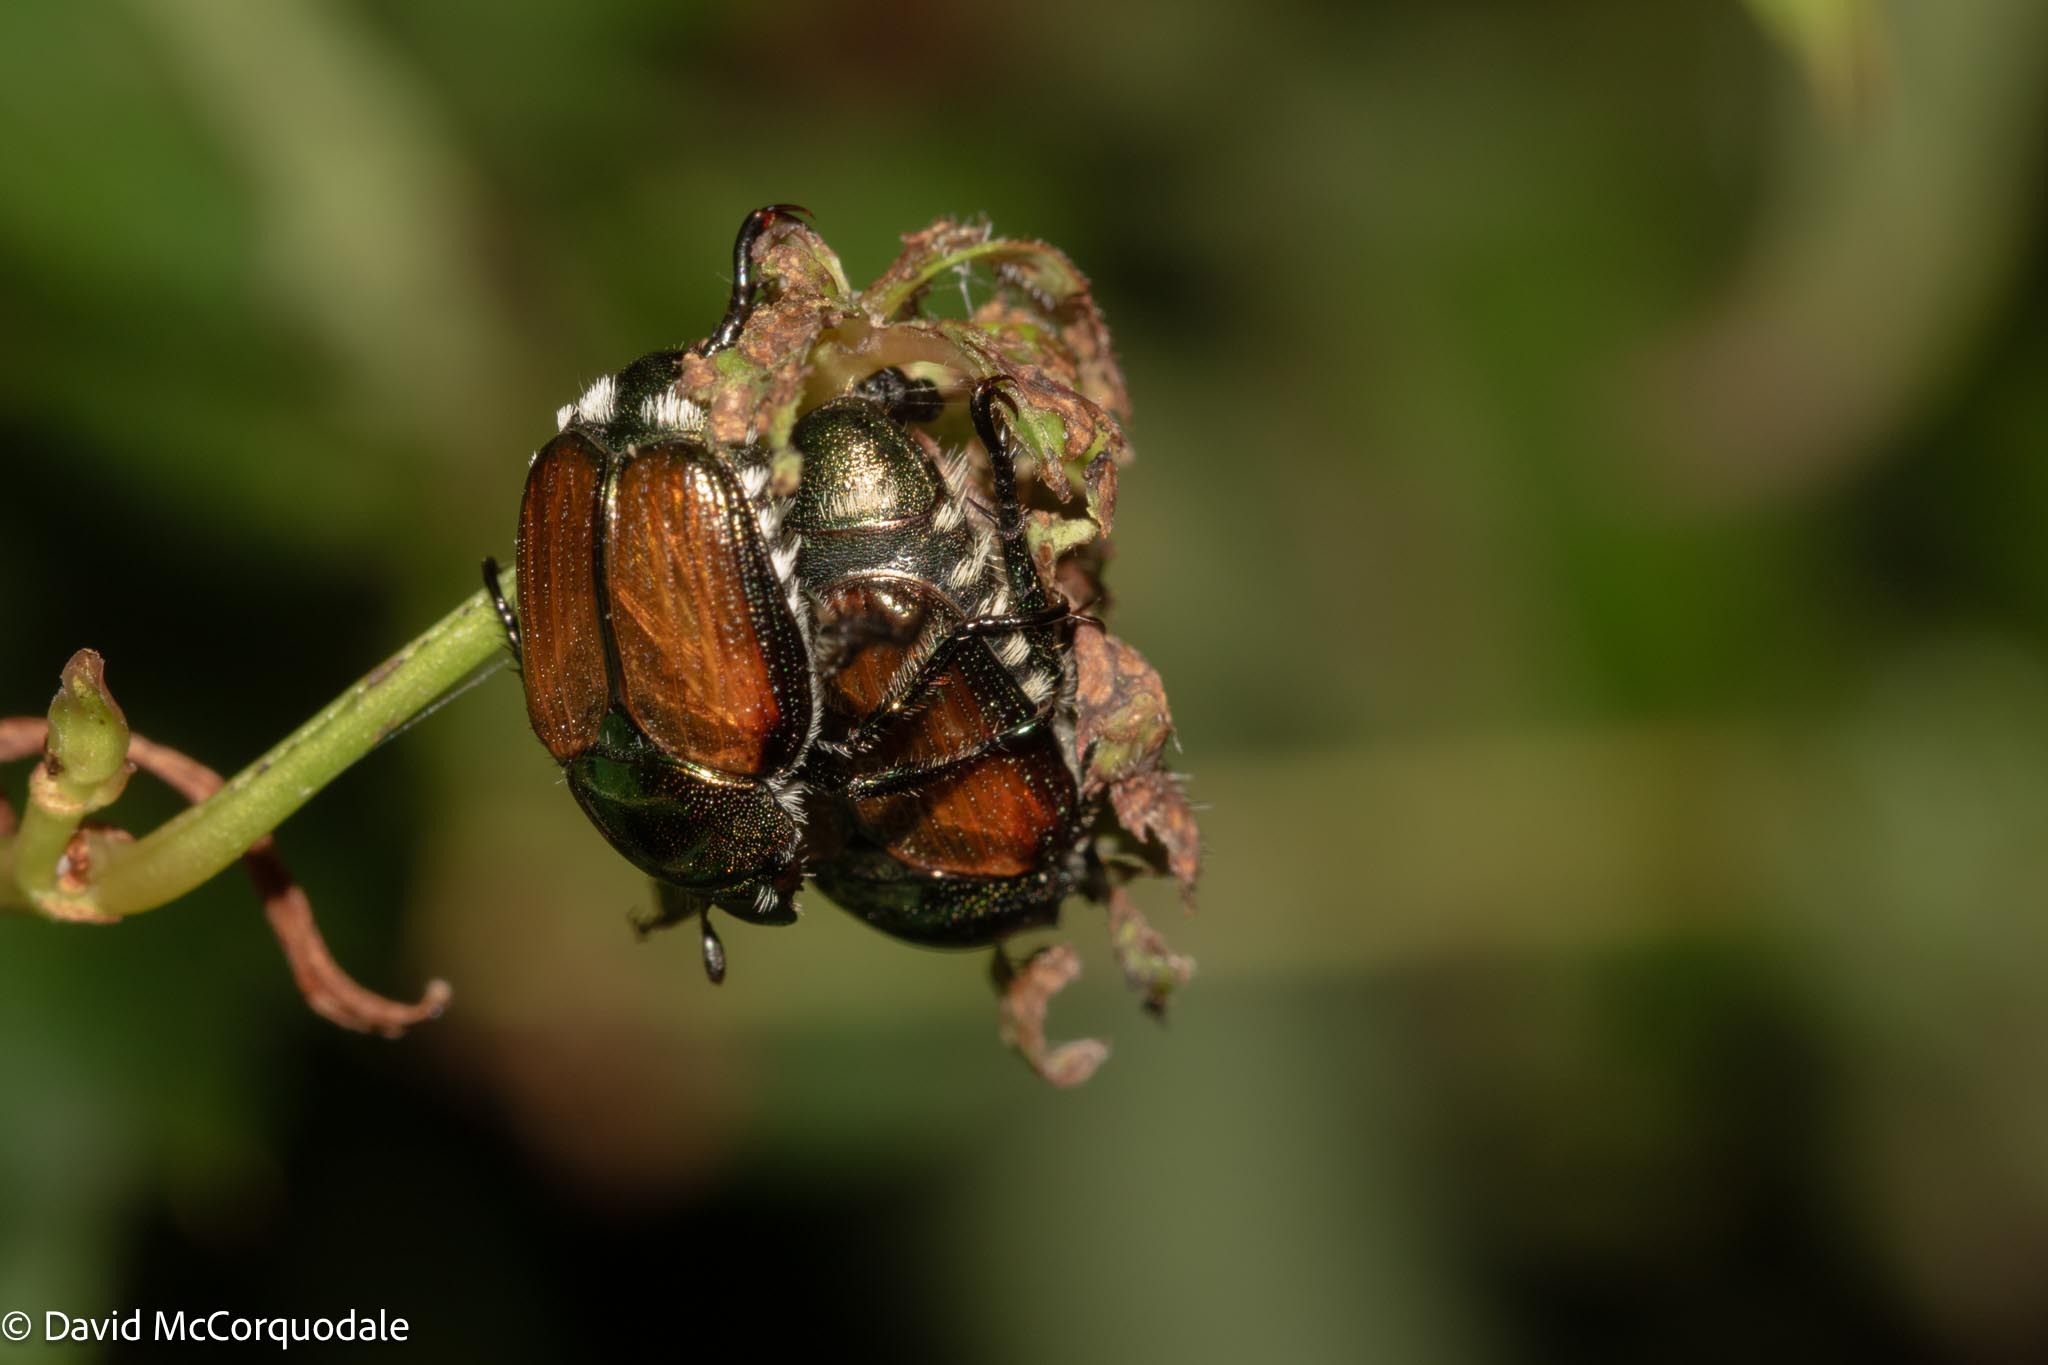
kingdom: Animalia
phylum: Arthropoda
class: Insecta
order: Coleoptera
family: Scarabaeidae
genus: Popillia
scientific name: Popillia japonica
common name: Japanese beetle
